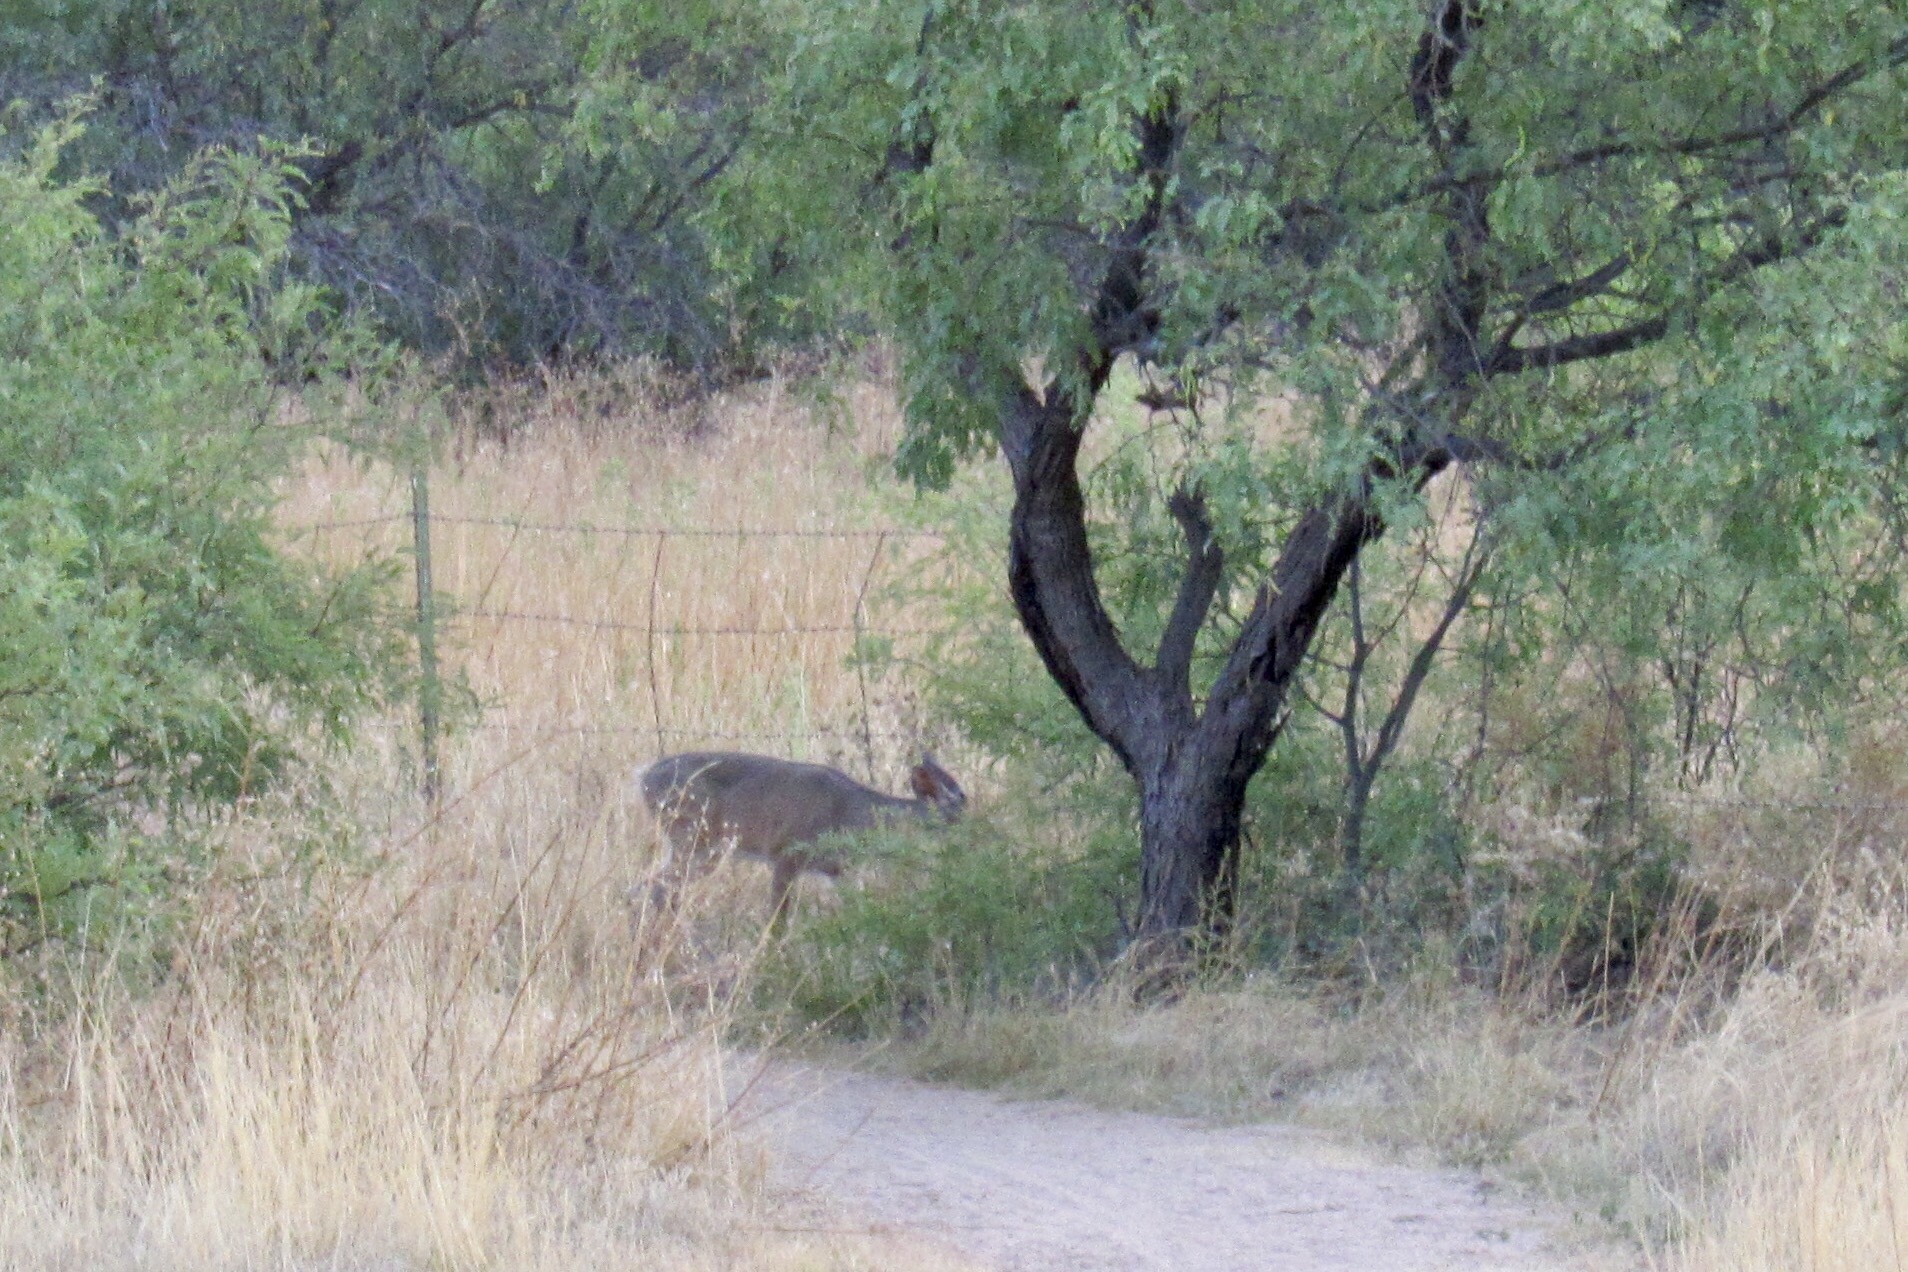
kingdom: Animalia
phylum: Chordata
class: Mammalia
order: Artiodactyla
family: Cervidae
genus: Odocoileus
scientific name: Odocoileus virginianus
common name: White-tailed deer
